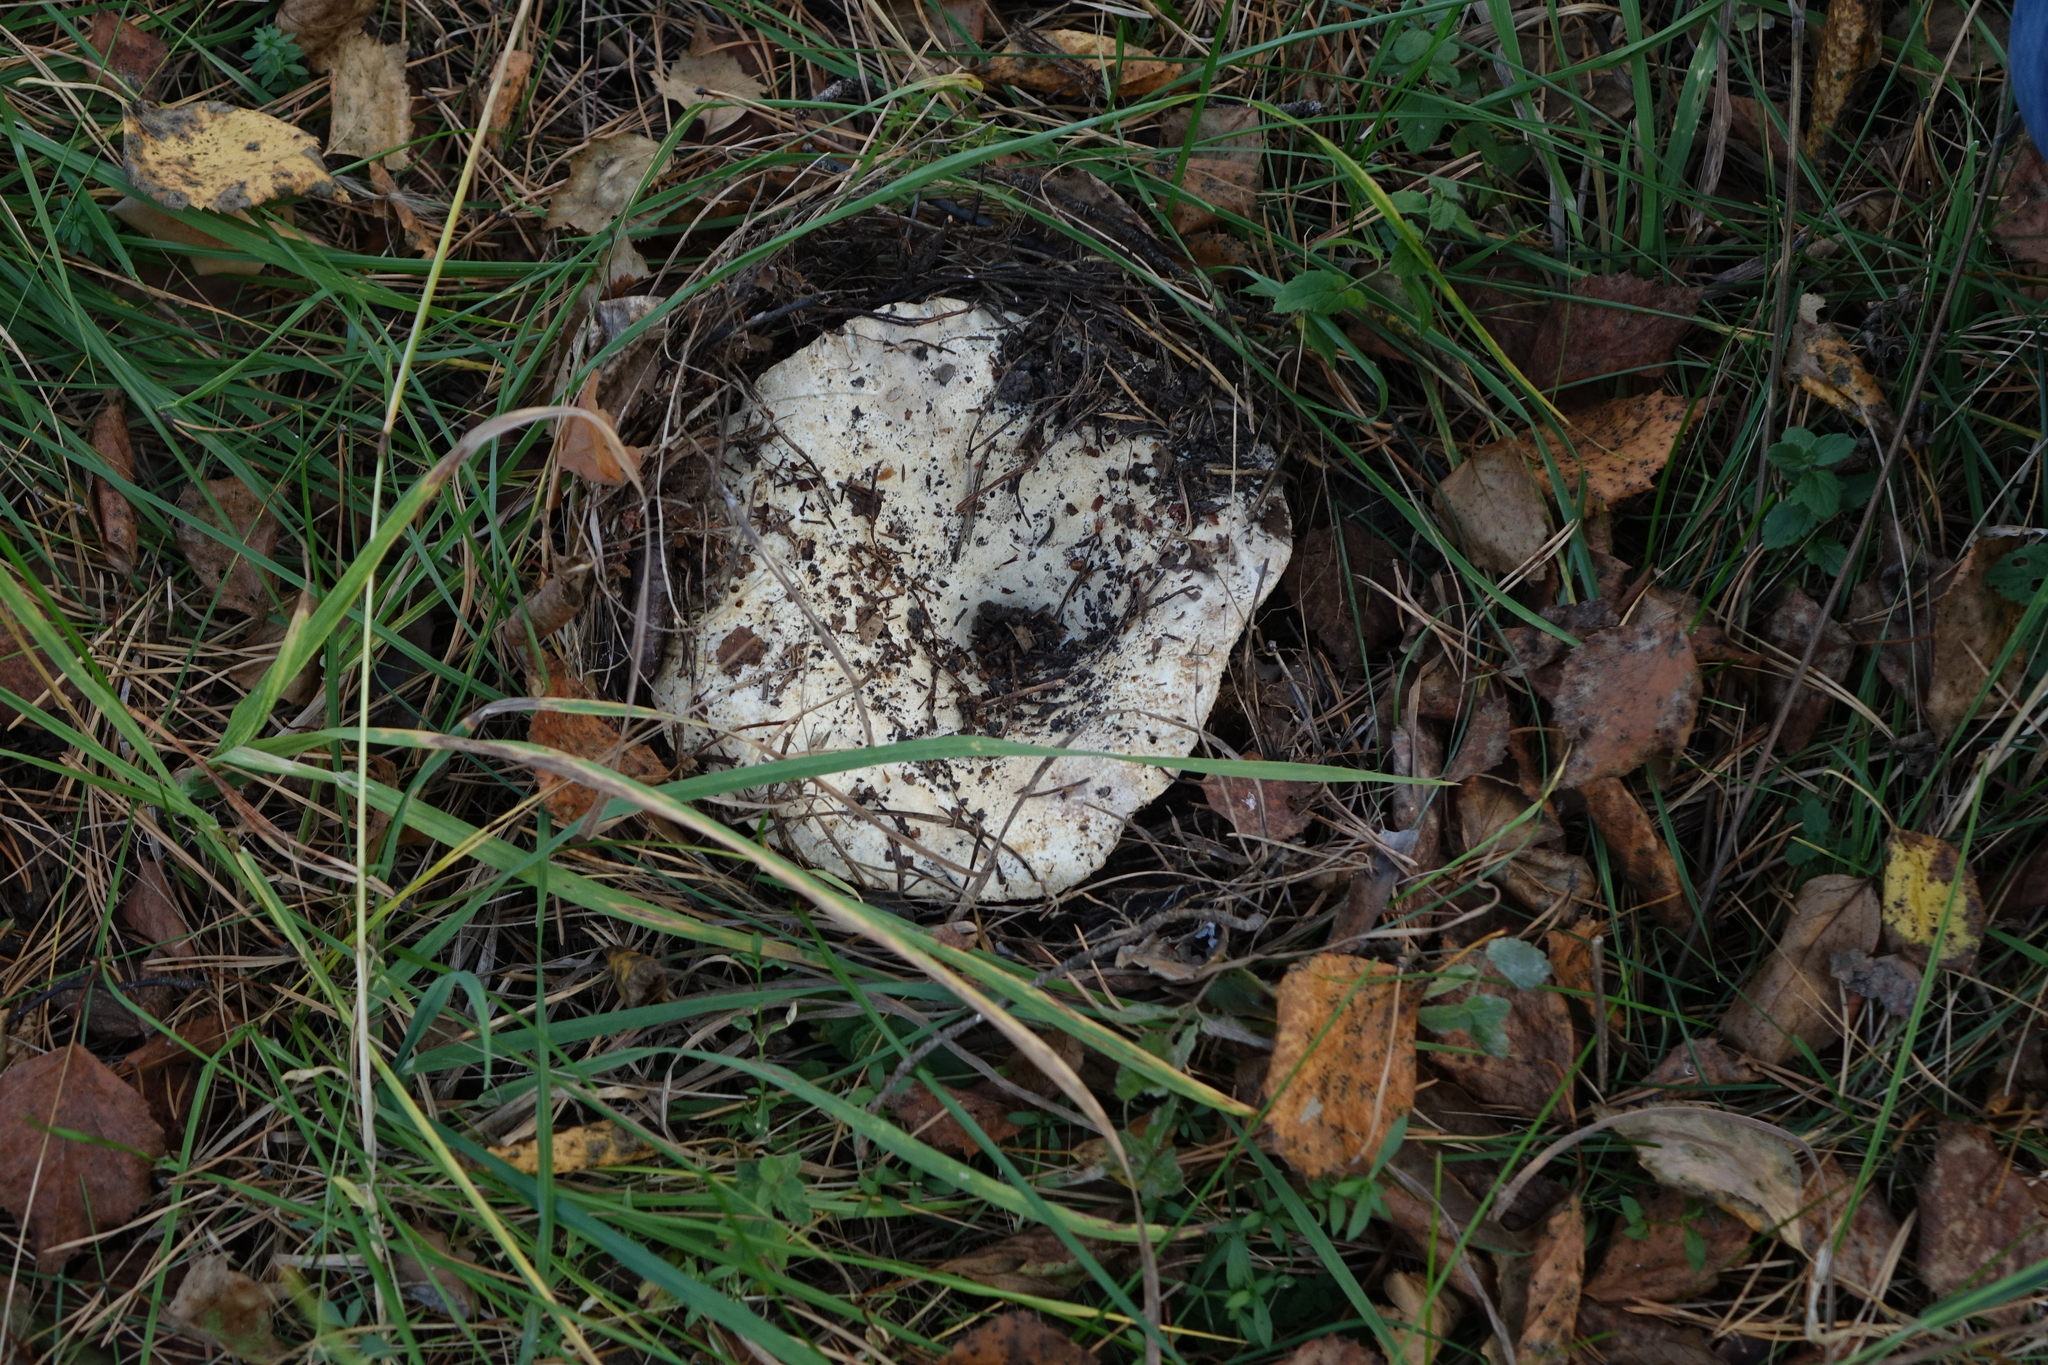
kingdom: Fungi
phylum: Basidiomycota
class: Agaricomycetes
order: Russulales
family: Russulaceae
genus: Russula
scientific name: Russula delica
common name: Milk white brittlegill
